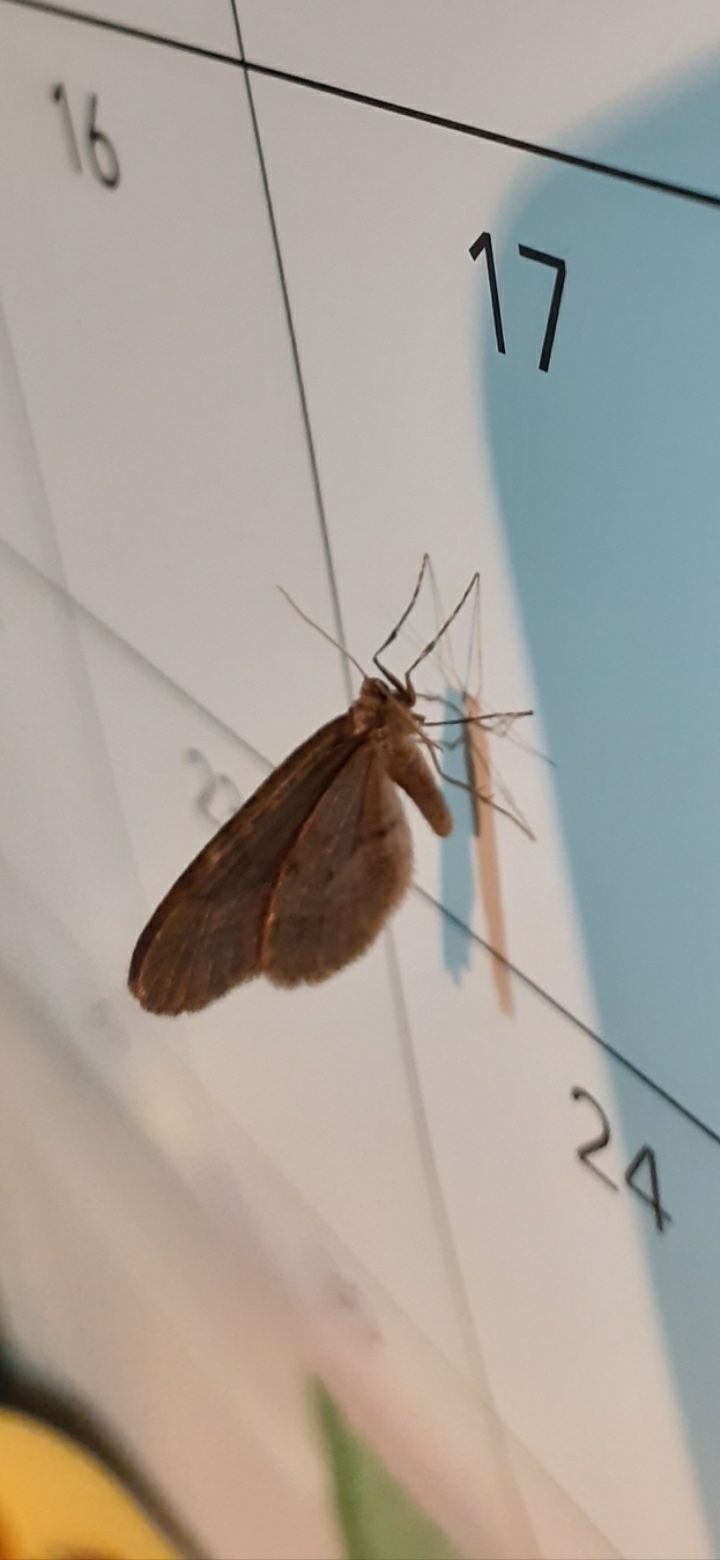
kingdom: Animalia
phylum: Arthropoda
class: Insecta
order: Lepidoptera
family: Geometridae
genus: Operophtera
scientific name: Operophtera brumata
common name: Winter moth
